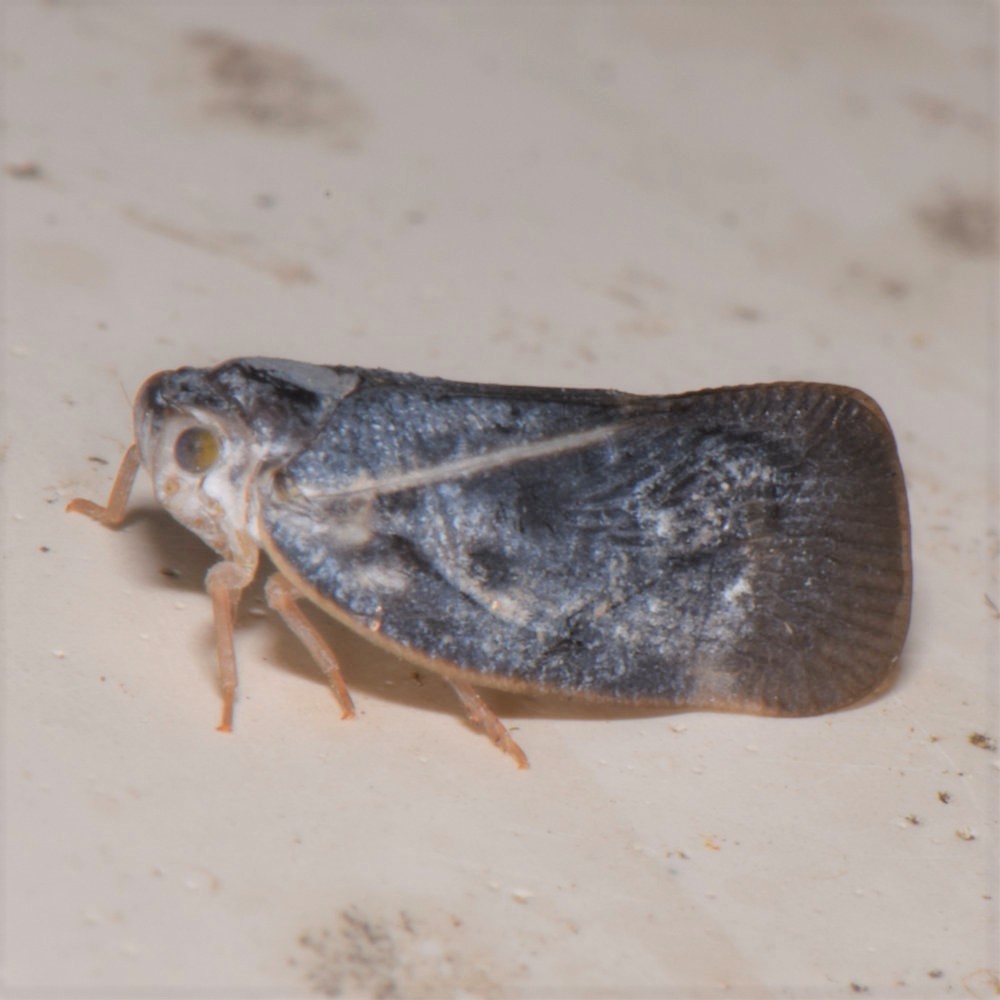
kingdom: Animalia
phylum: Arthropoda
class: Insecta
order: Hemiptera
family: Flatidae
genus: Metcalfa
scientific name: Metcalfa pruinosa
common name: Citrus flatid planthopper
